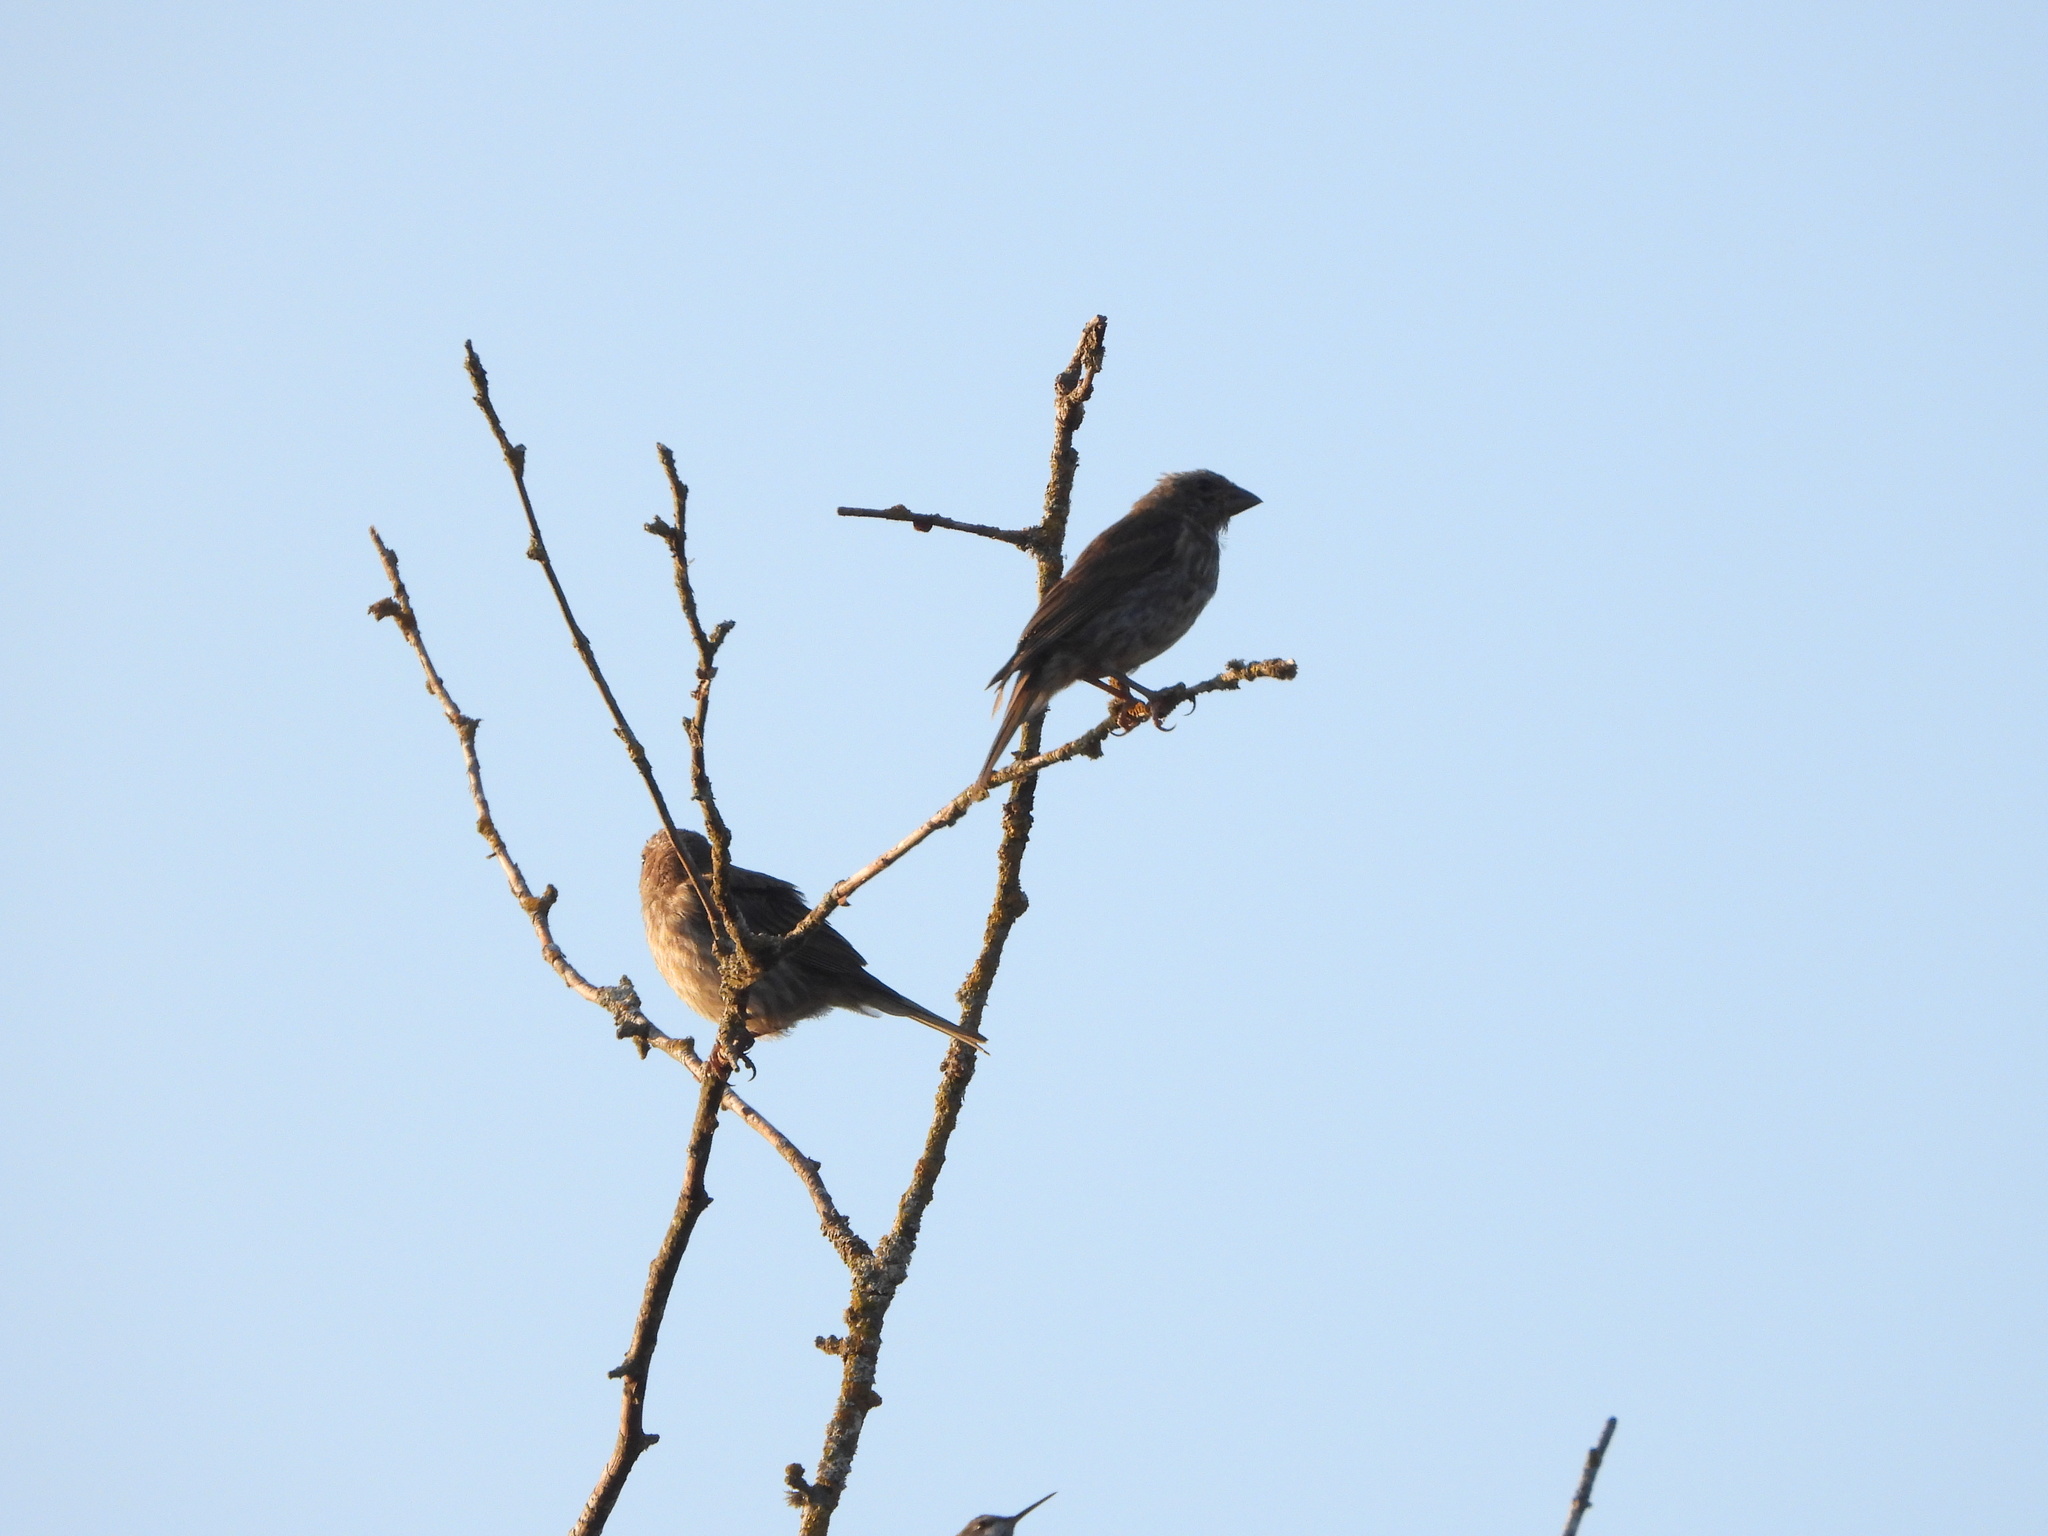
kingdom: Animalia
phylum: Chordata
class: Aves
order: Passeriformes
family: Fringillidae
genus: Haemorhous
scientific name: Haemorhous purpureus
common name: Purple finch
